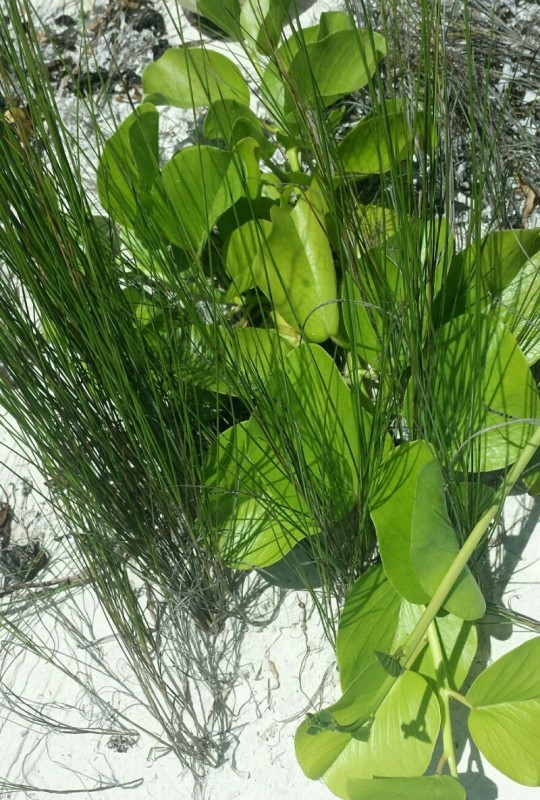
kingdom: Plantae
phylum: Tracheophyta
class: Magnoliopsida
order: Solanales
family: Convolvulaceae
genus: Ipomoea
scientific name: Ipomoea pes-caprae
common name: Beach morning glory
